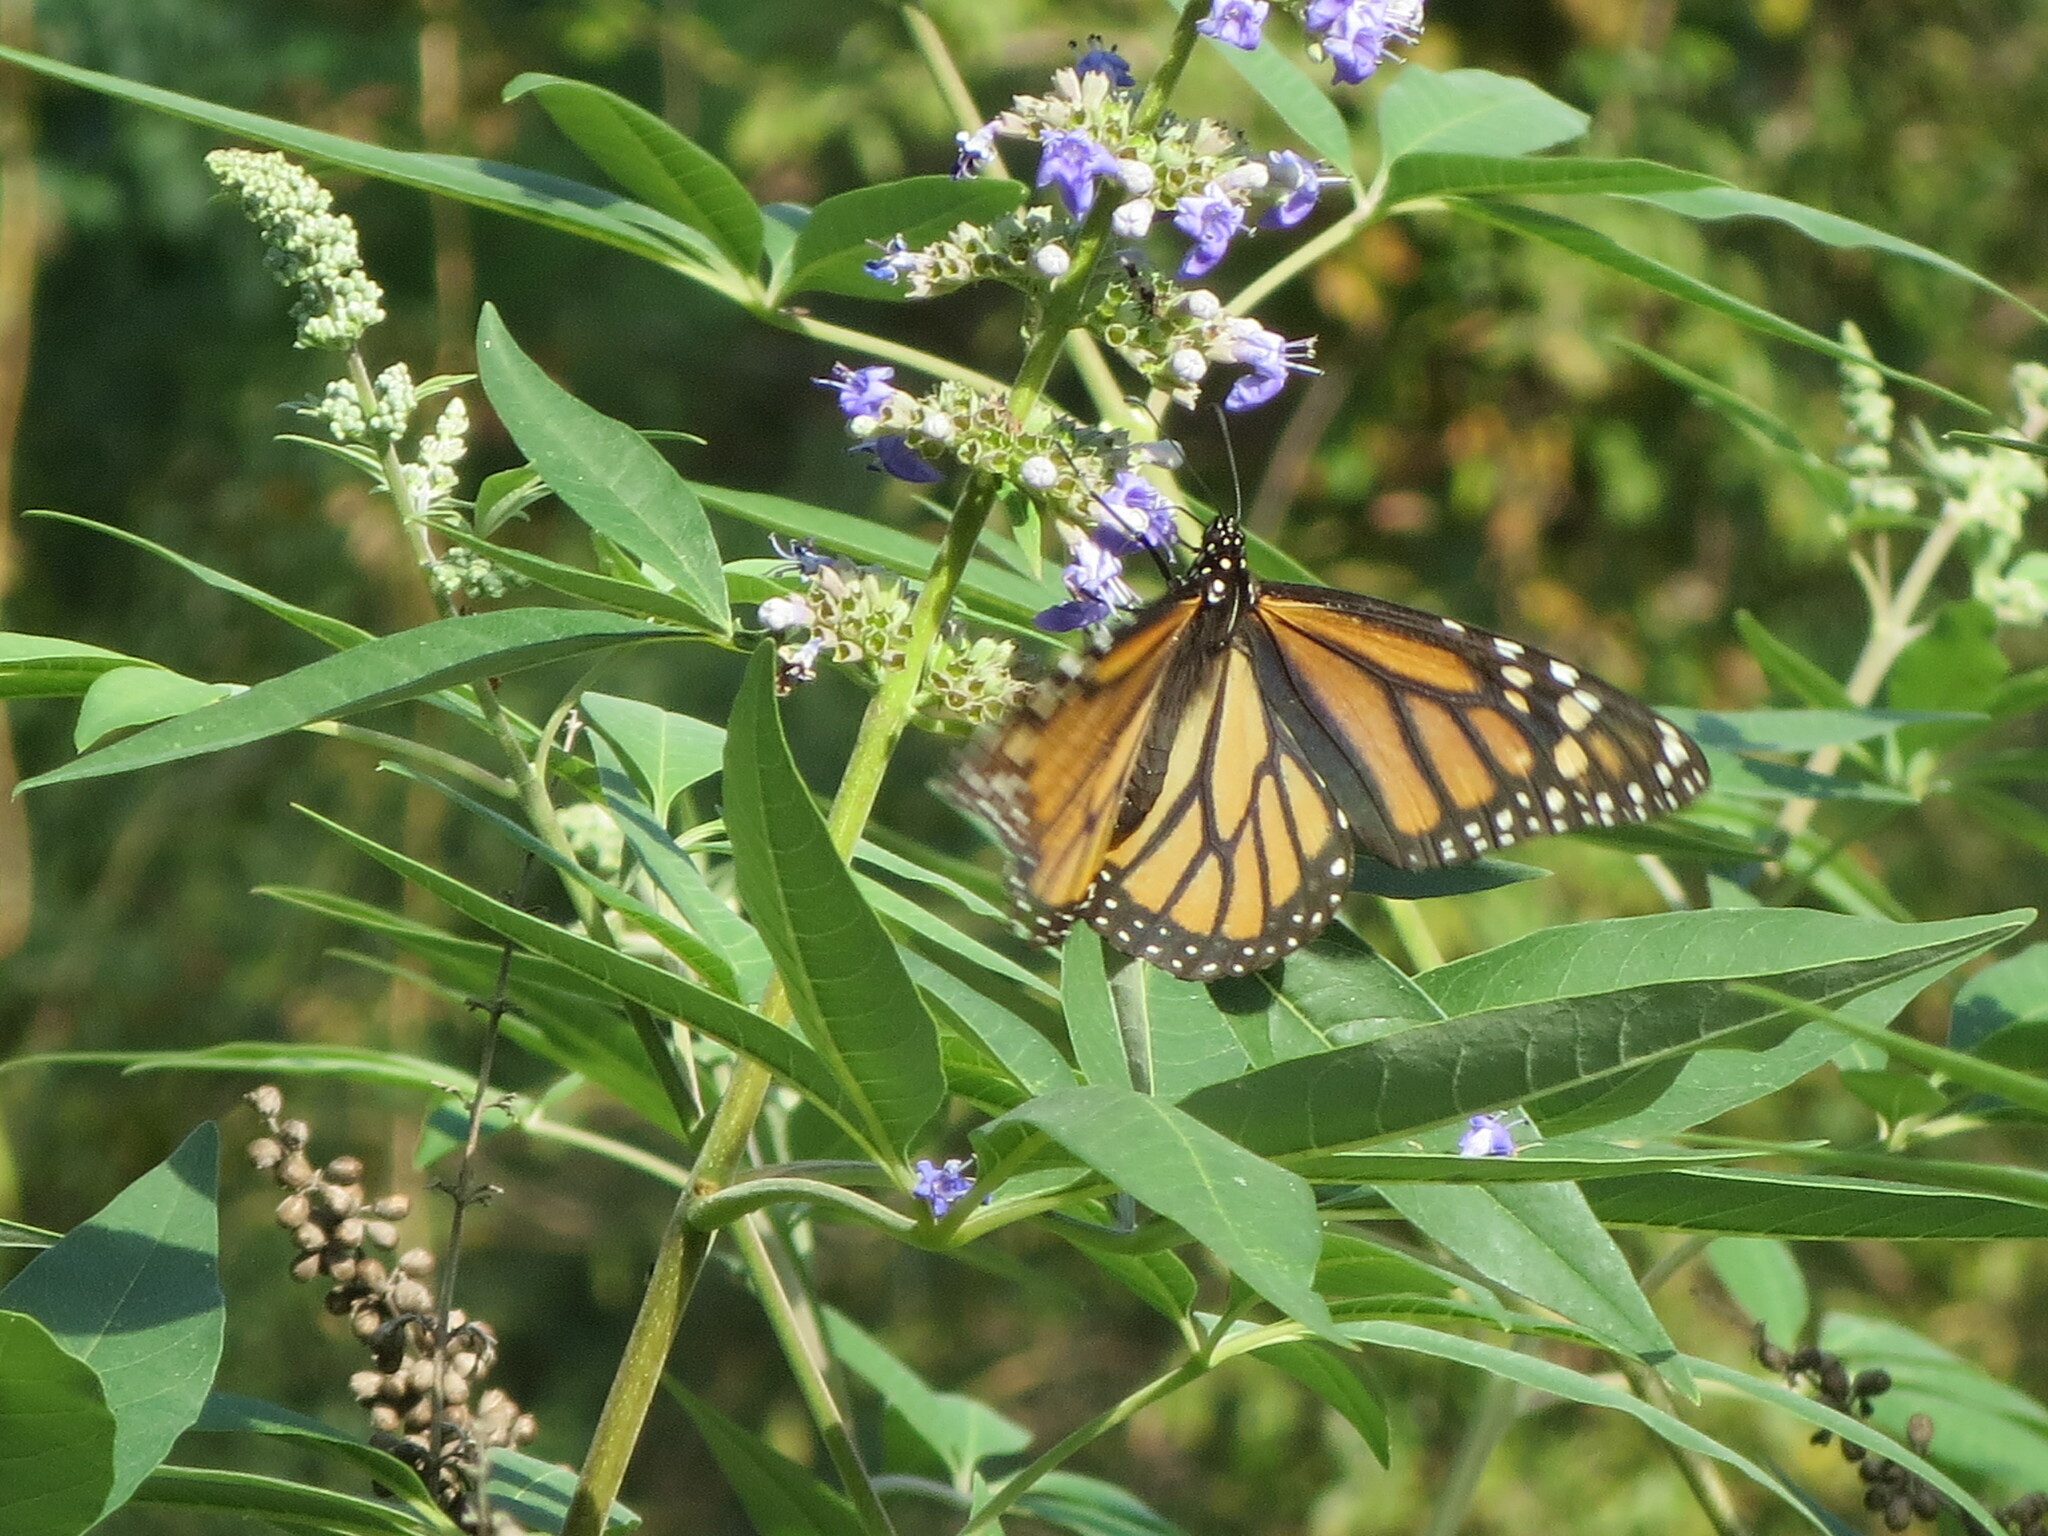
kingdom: Animalia
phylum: Arthropoda
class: Insecta
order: Lepidoptera
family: Nymphalidae
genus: Danaus
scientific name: Danaus plexippus
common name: Monarch
